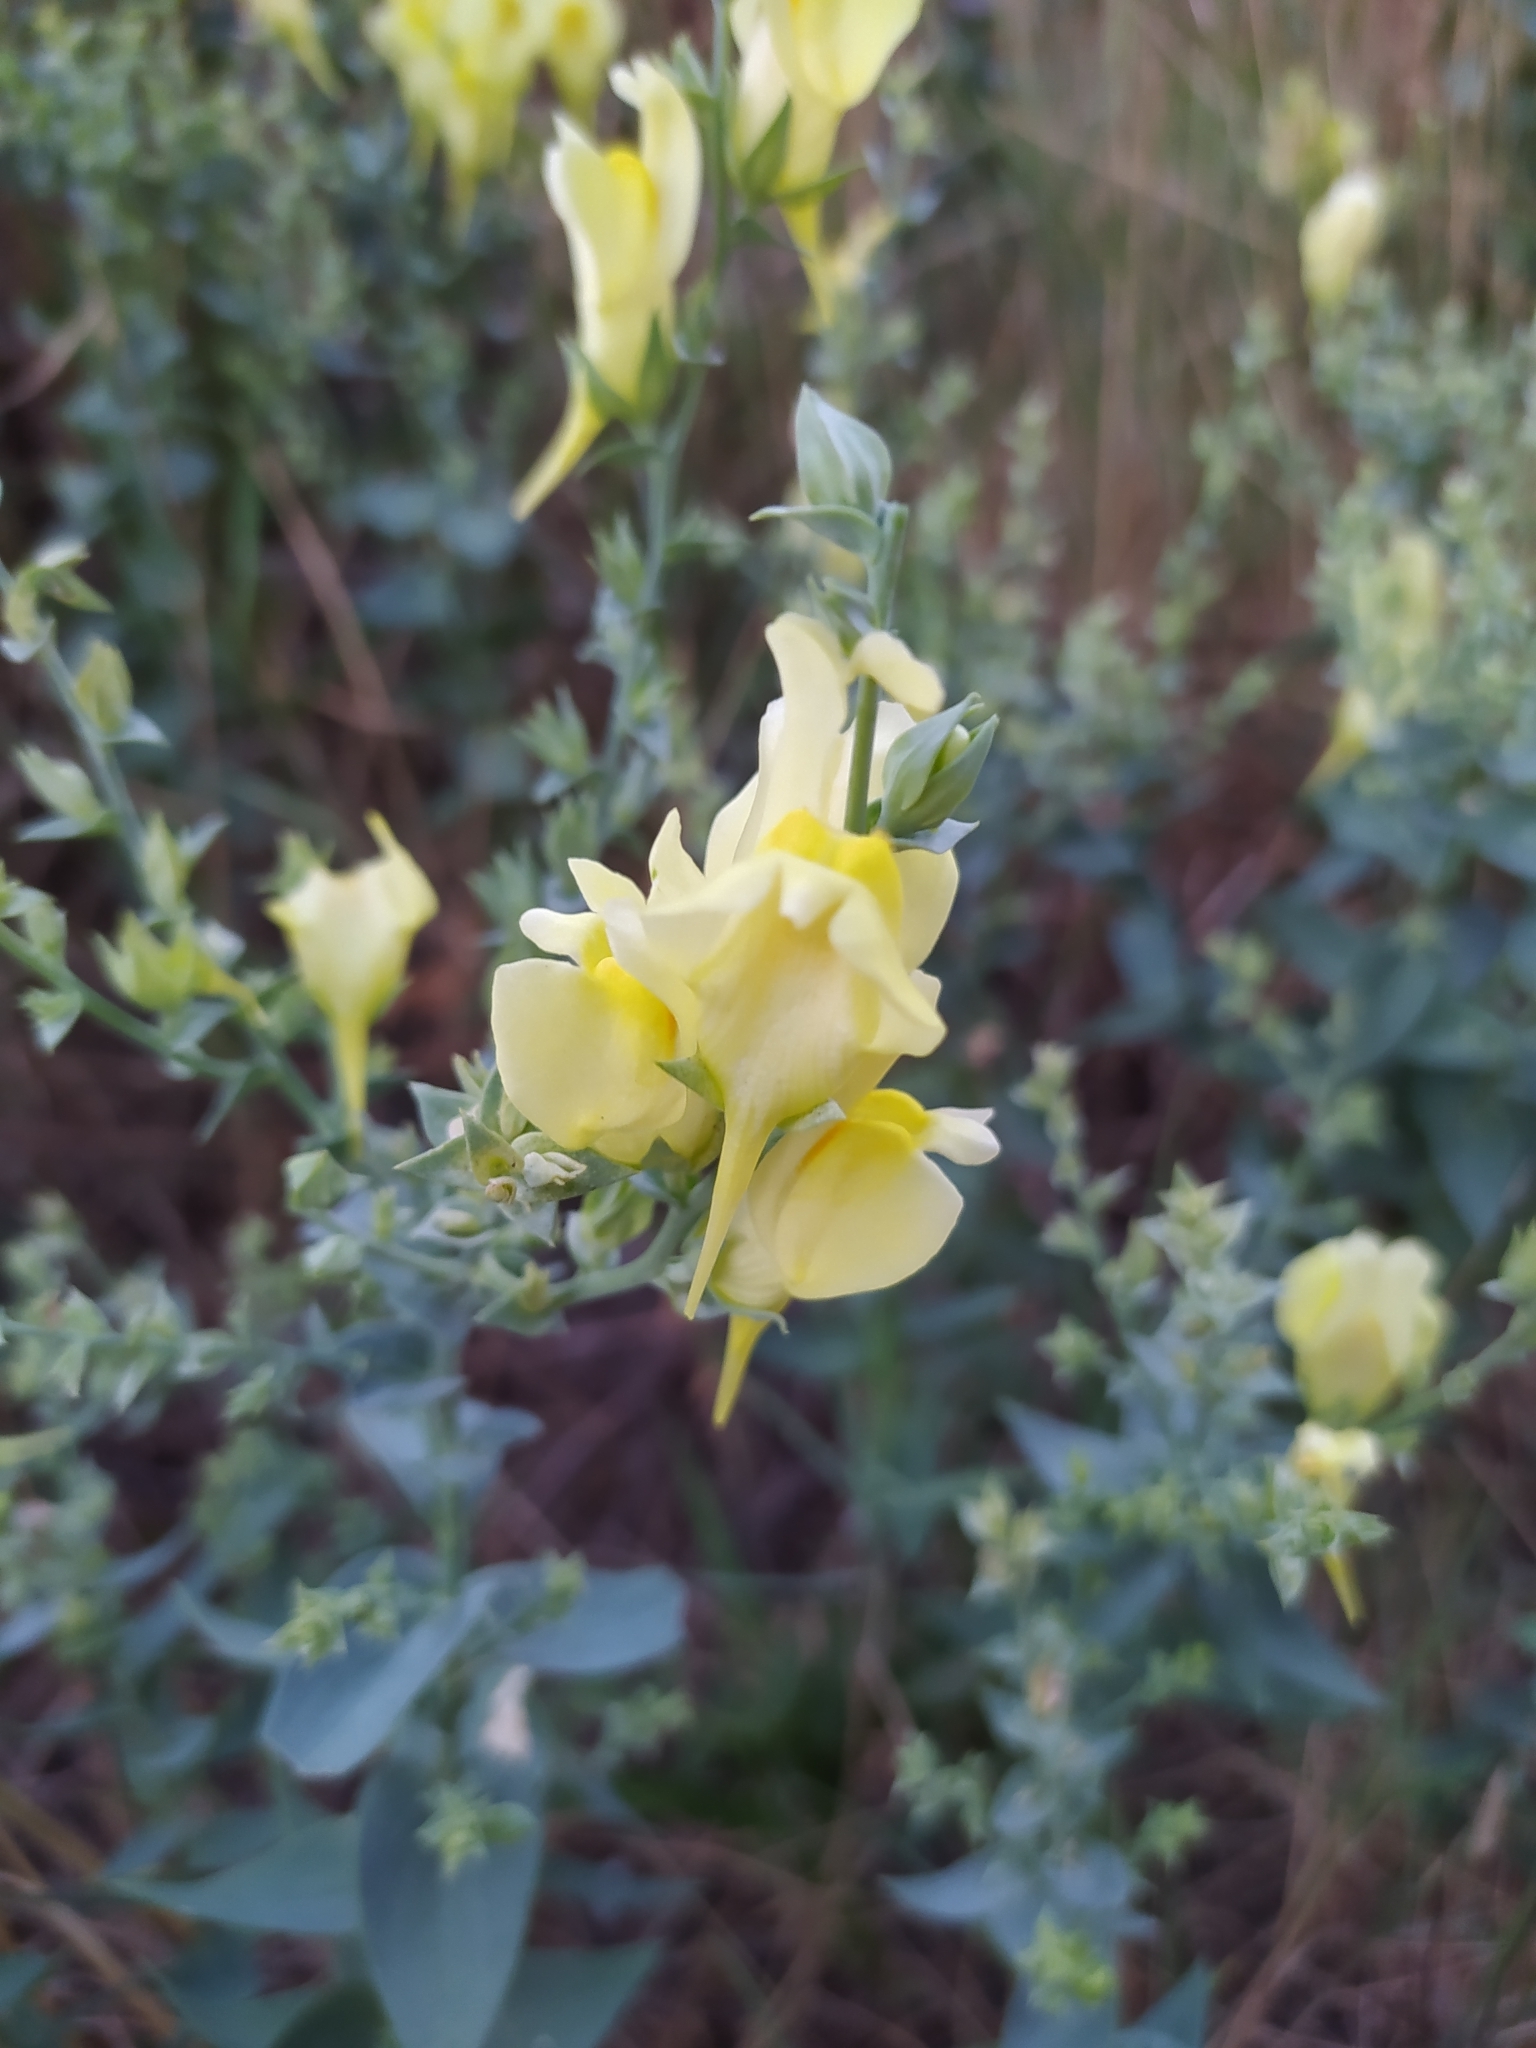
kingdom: Plantae
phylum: Tracheophyta
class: Magnoliopsida
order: Lamiales
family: Plantaginaceae
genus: Linaria
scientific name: Linaria dalmatica
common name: Dalmatian toadflax
